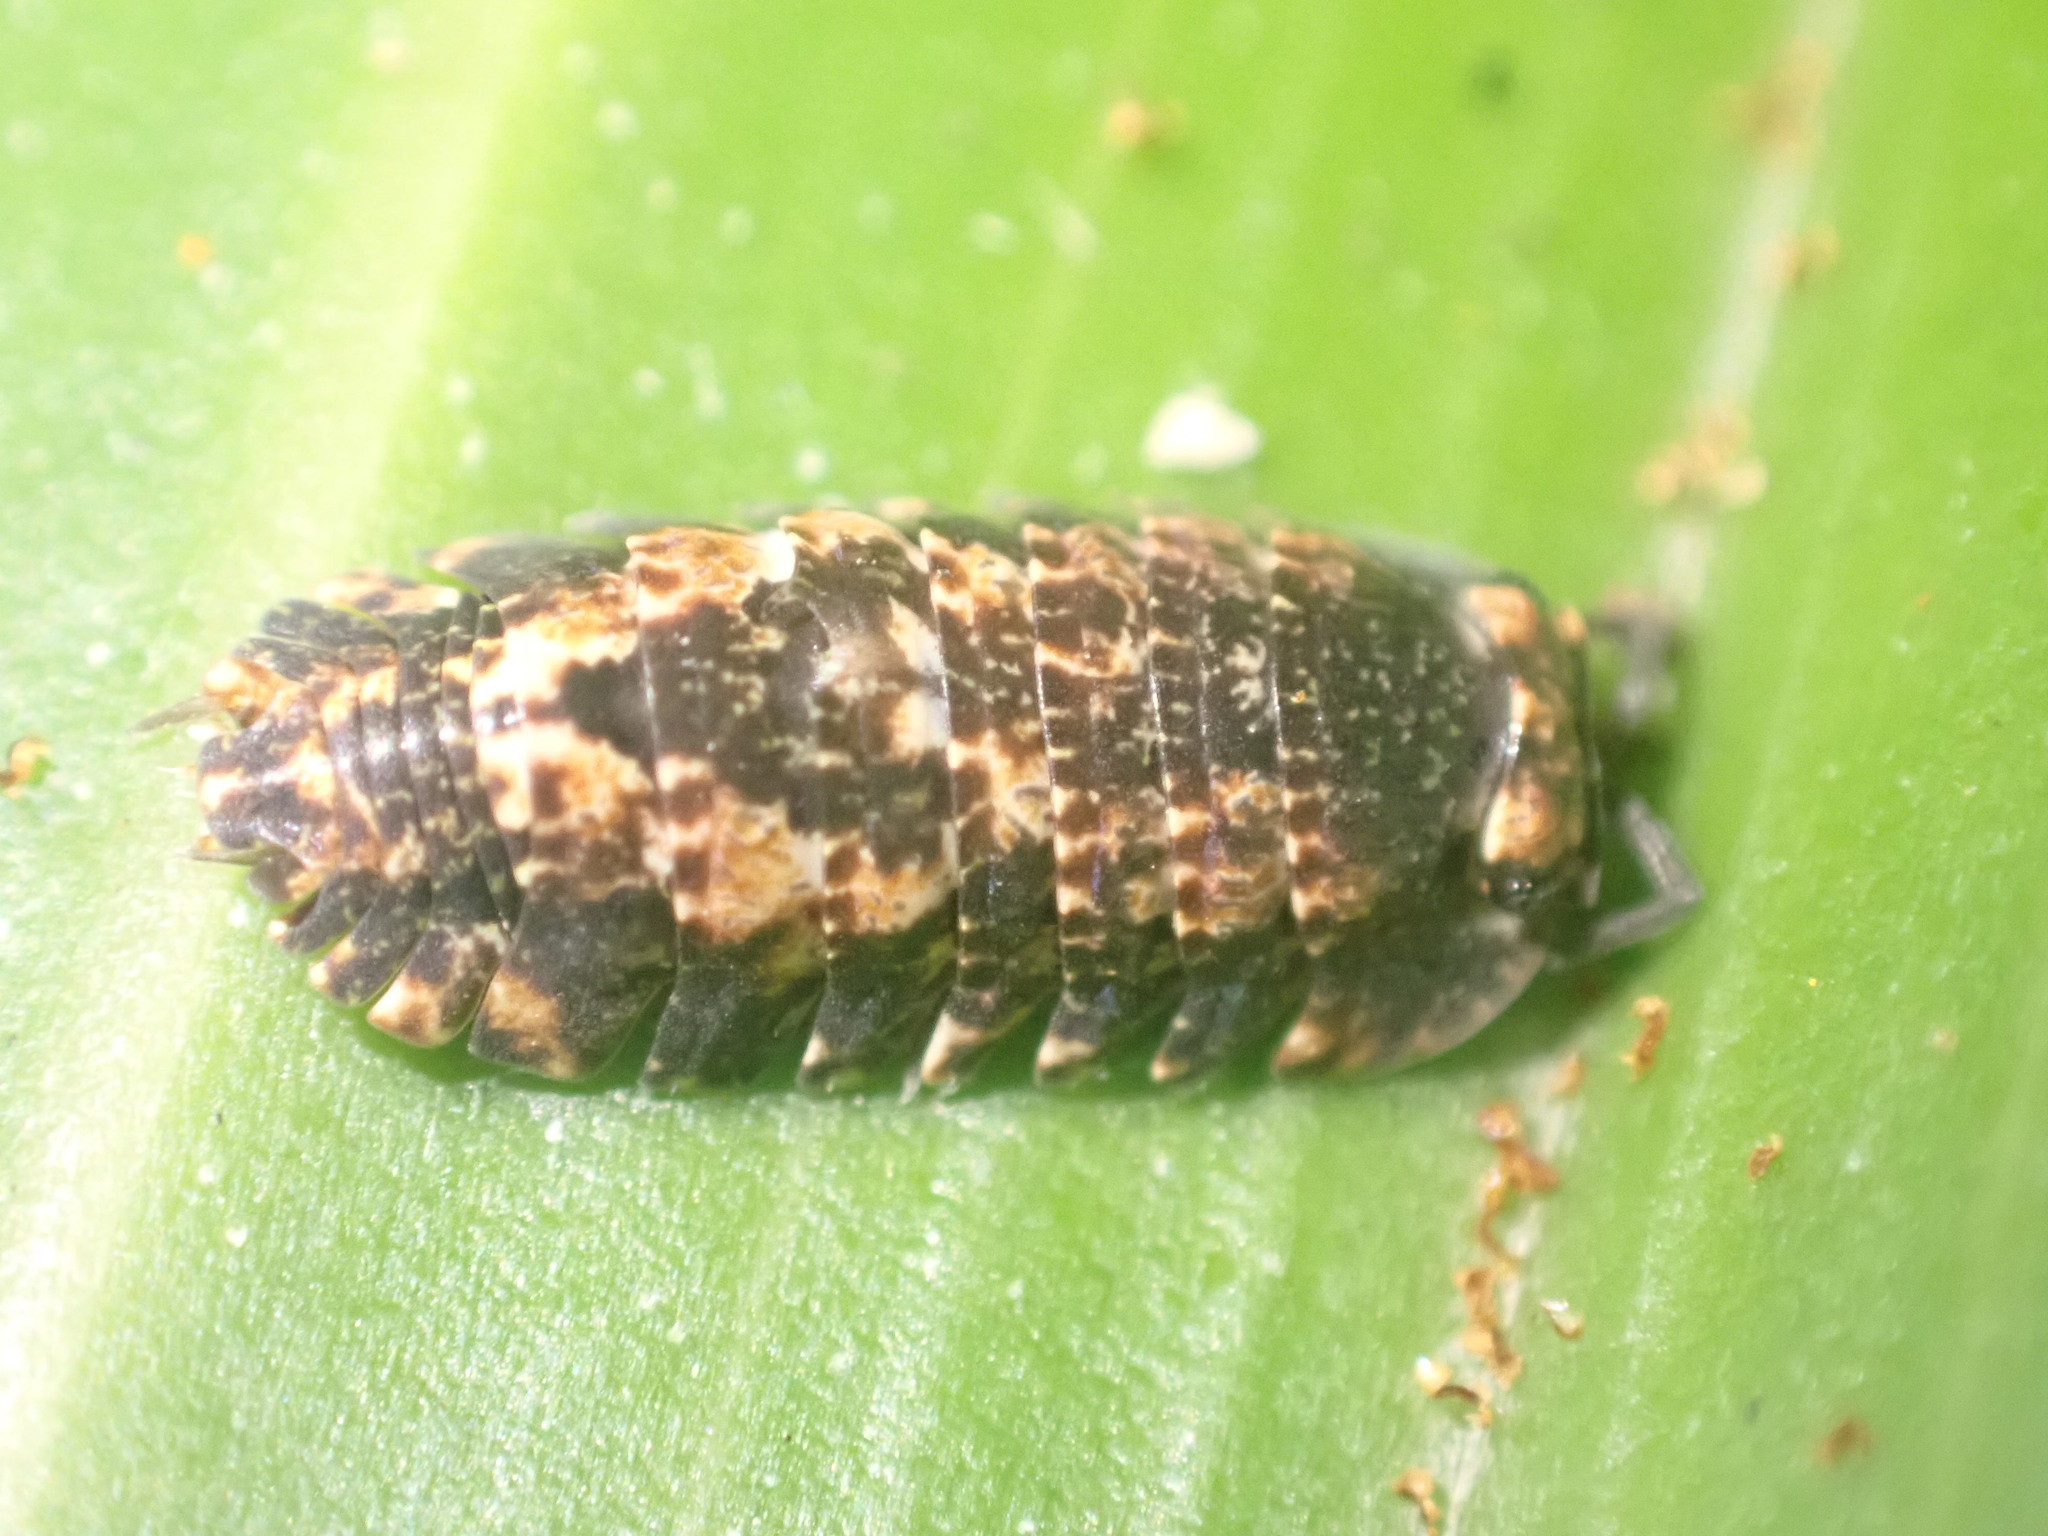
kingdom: Animalia
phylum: Arthropoda
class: Malacostraca
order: Isopoda
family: Armadillidae
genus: Cubaris
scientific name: Cubaris tarangensis
